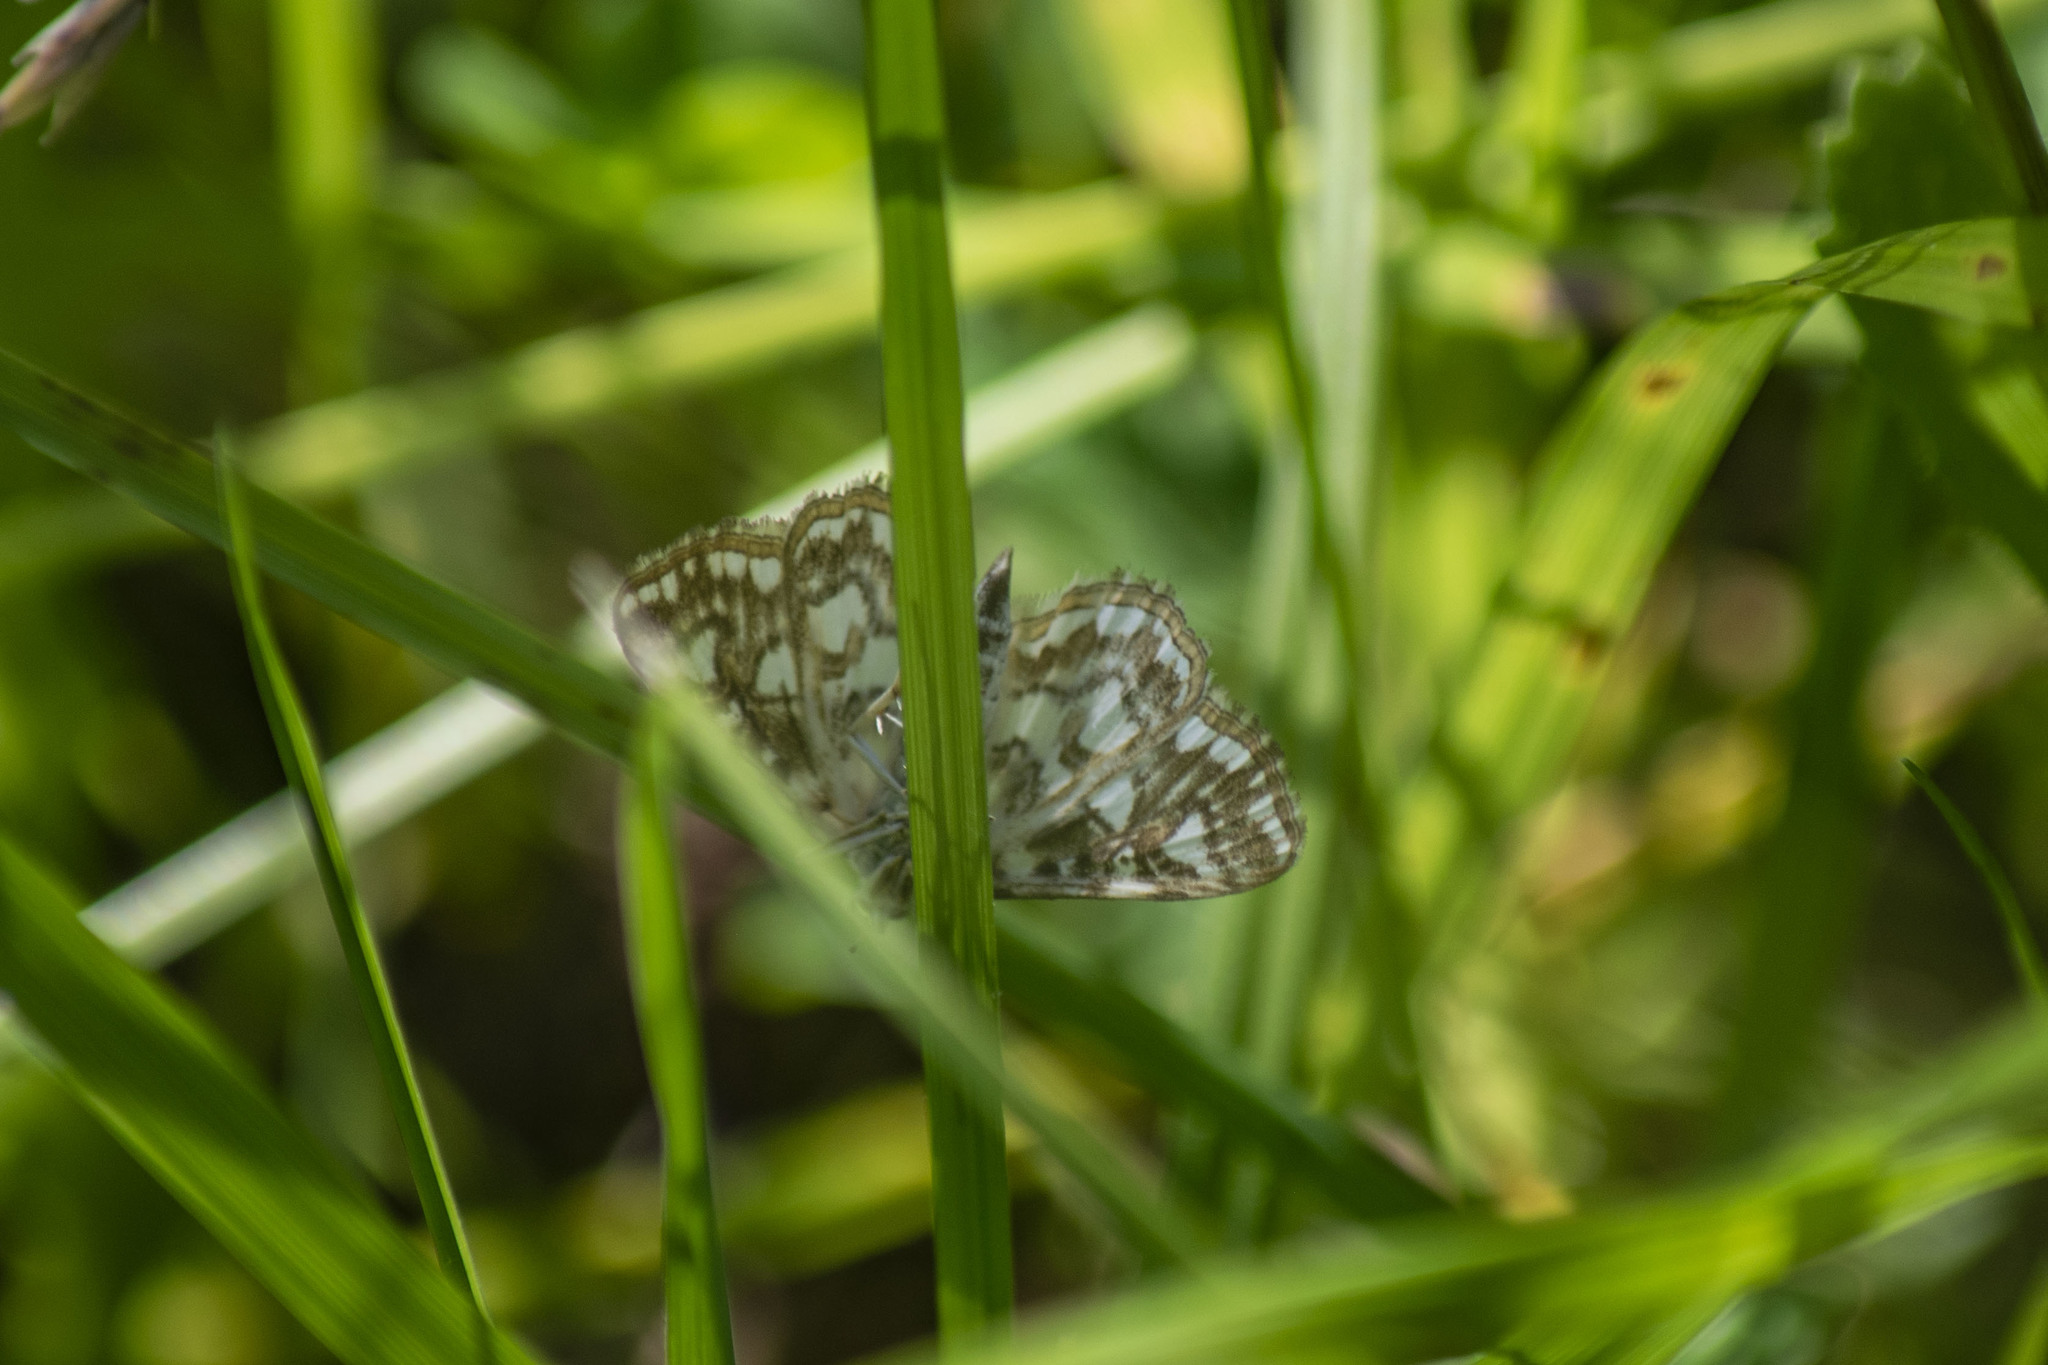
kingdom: Animalia
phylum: Arthropoda
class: Insecta
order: Lepidoptera
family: Crambidae
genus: Elophila
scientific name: Elophila nymphaeata
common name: Brown china-mark
